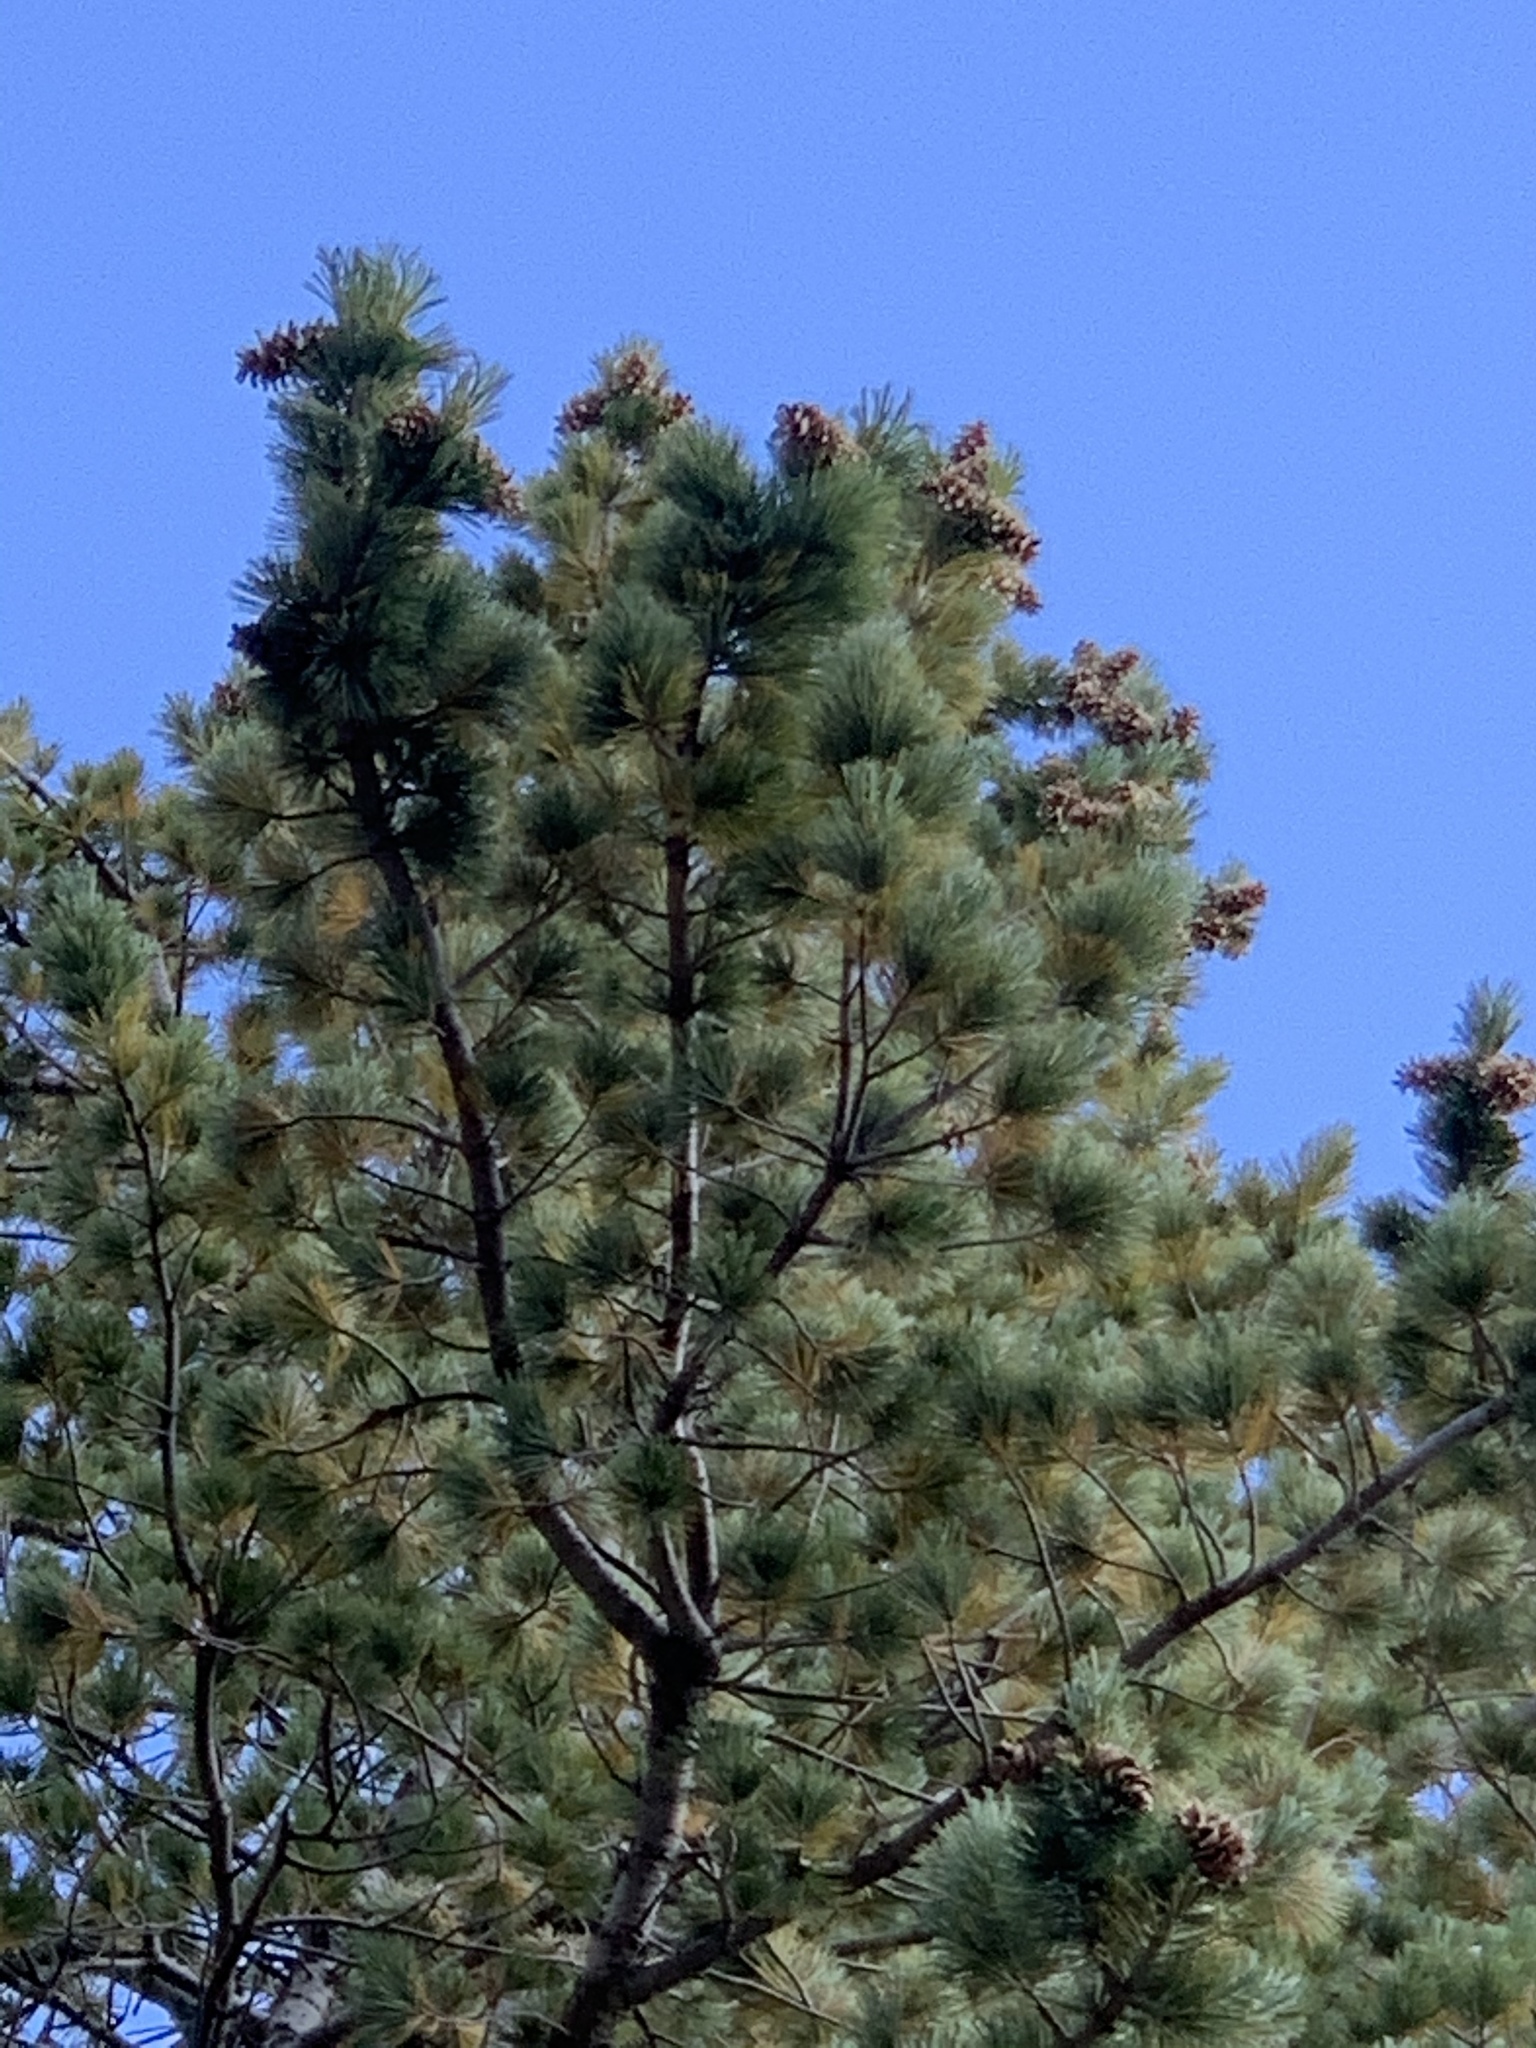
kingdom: Plantae
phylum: Tracheophyta
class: Pinopsida
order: Pinales
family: Pinaceae
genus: Pinus
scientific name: Pinus strobiformis
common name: Southwestern white pine
